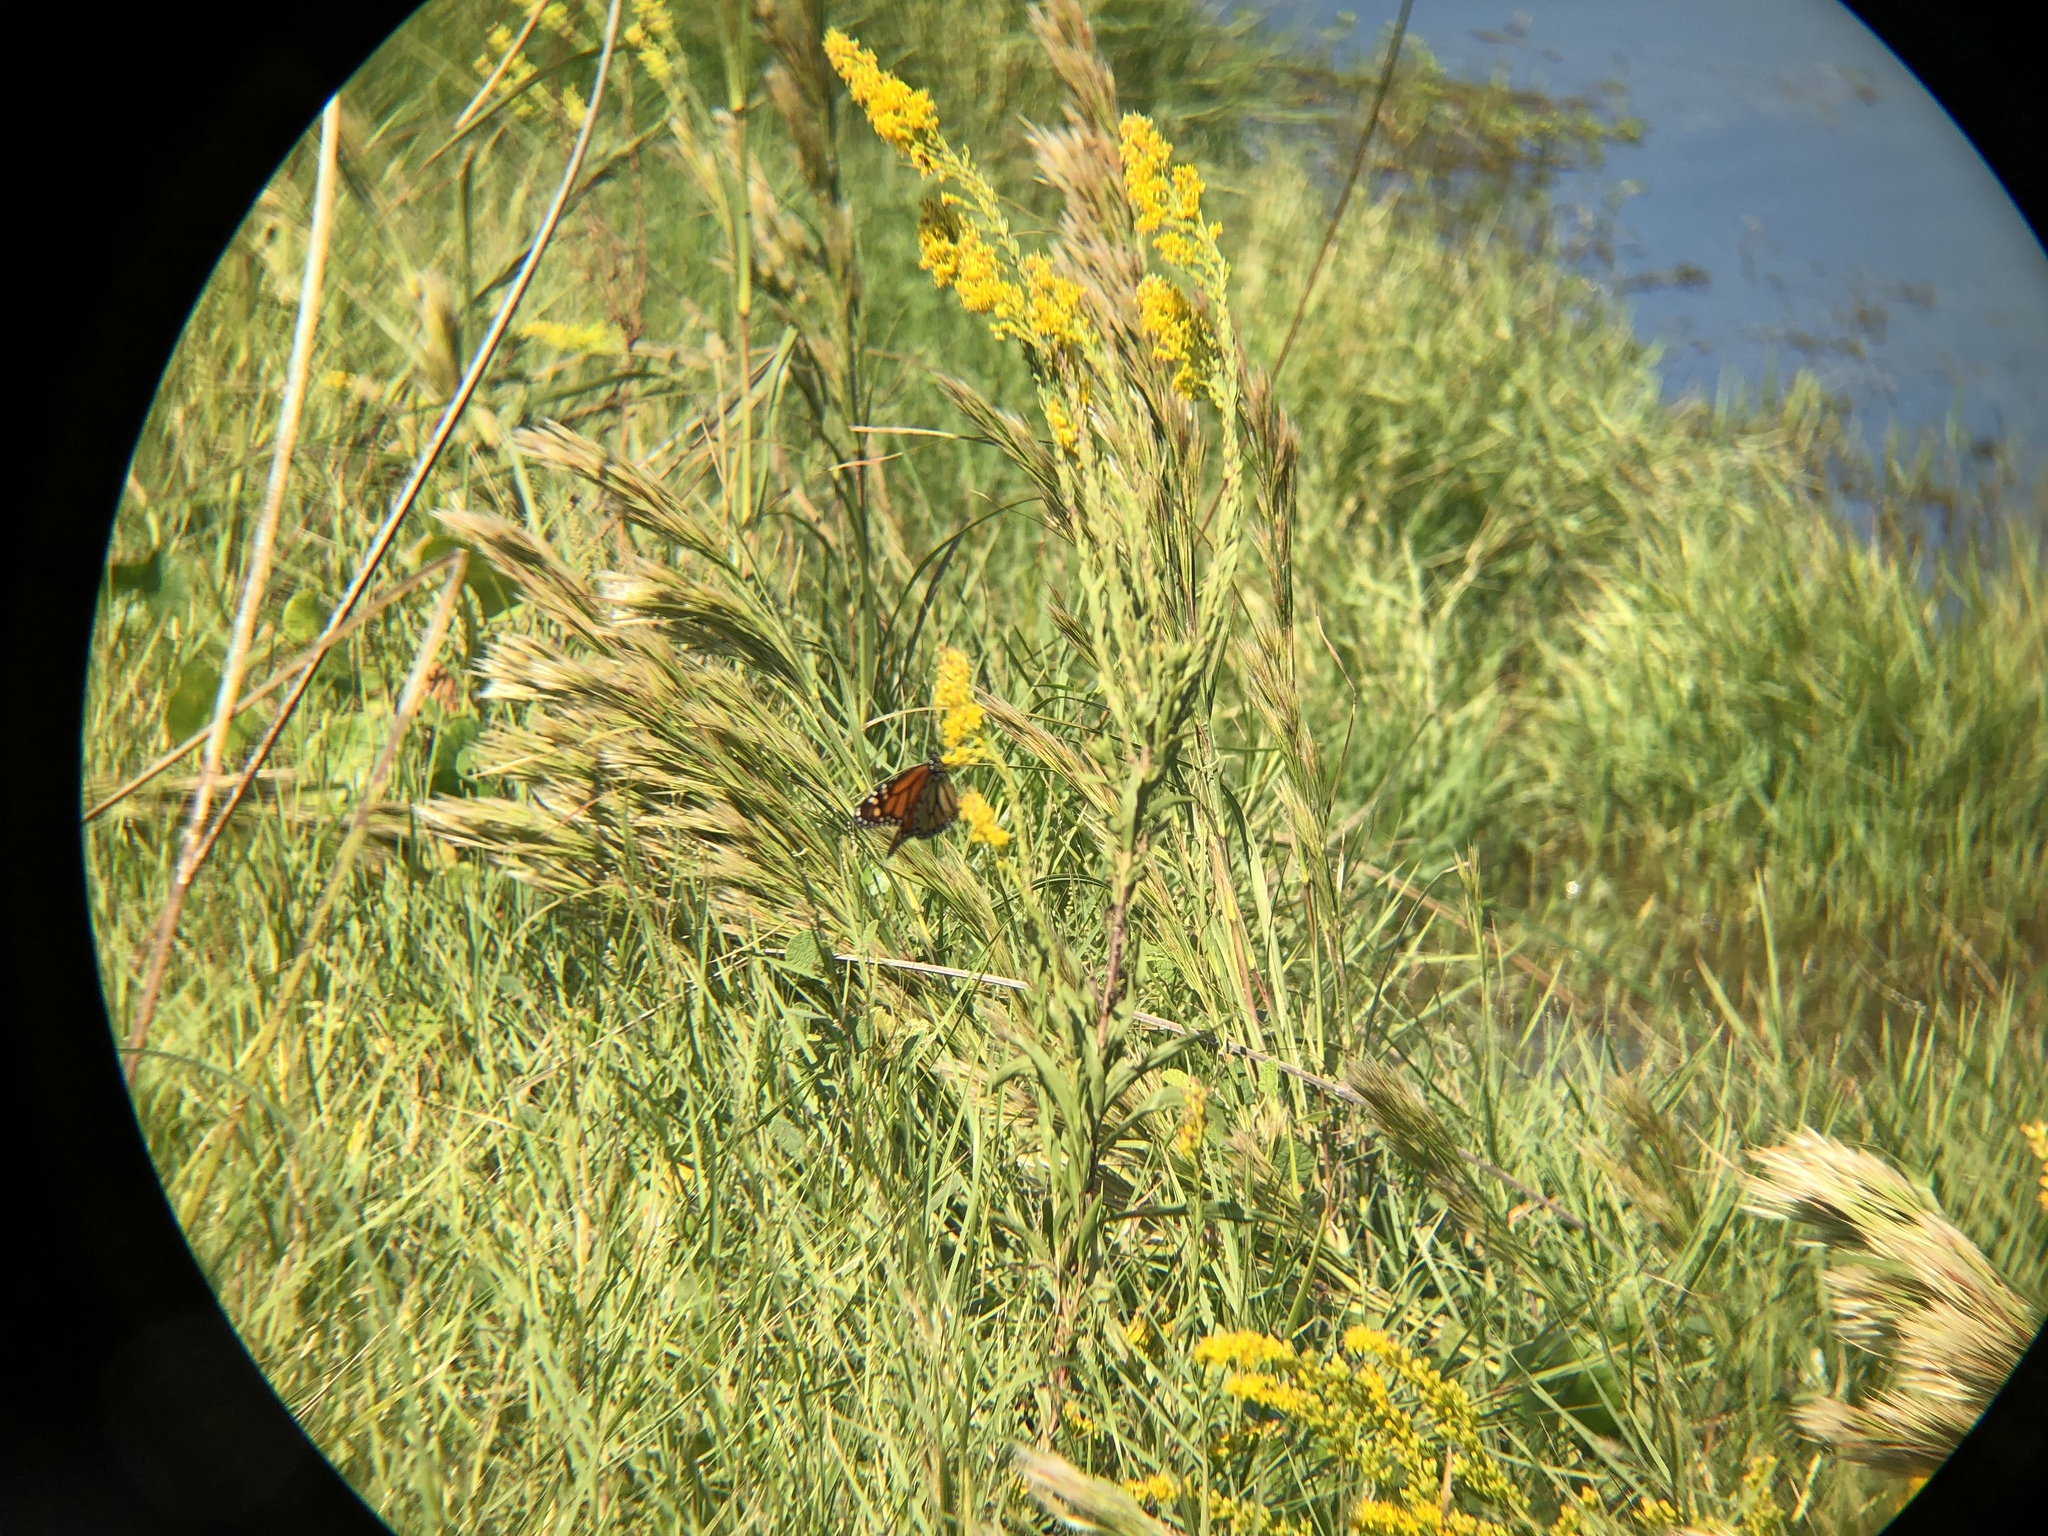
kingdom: Animalia
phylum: Arthropoda
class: Insecta
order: Lepidoptera
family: Nymphalidae
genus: Danaus
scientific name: Danaus plexippus
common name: Monarch
